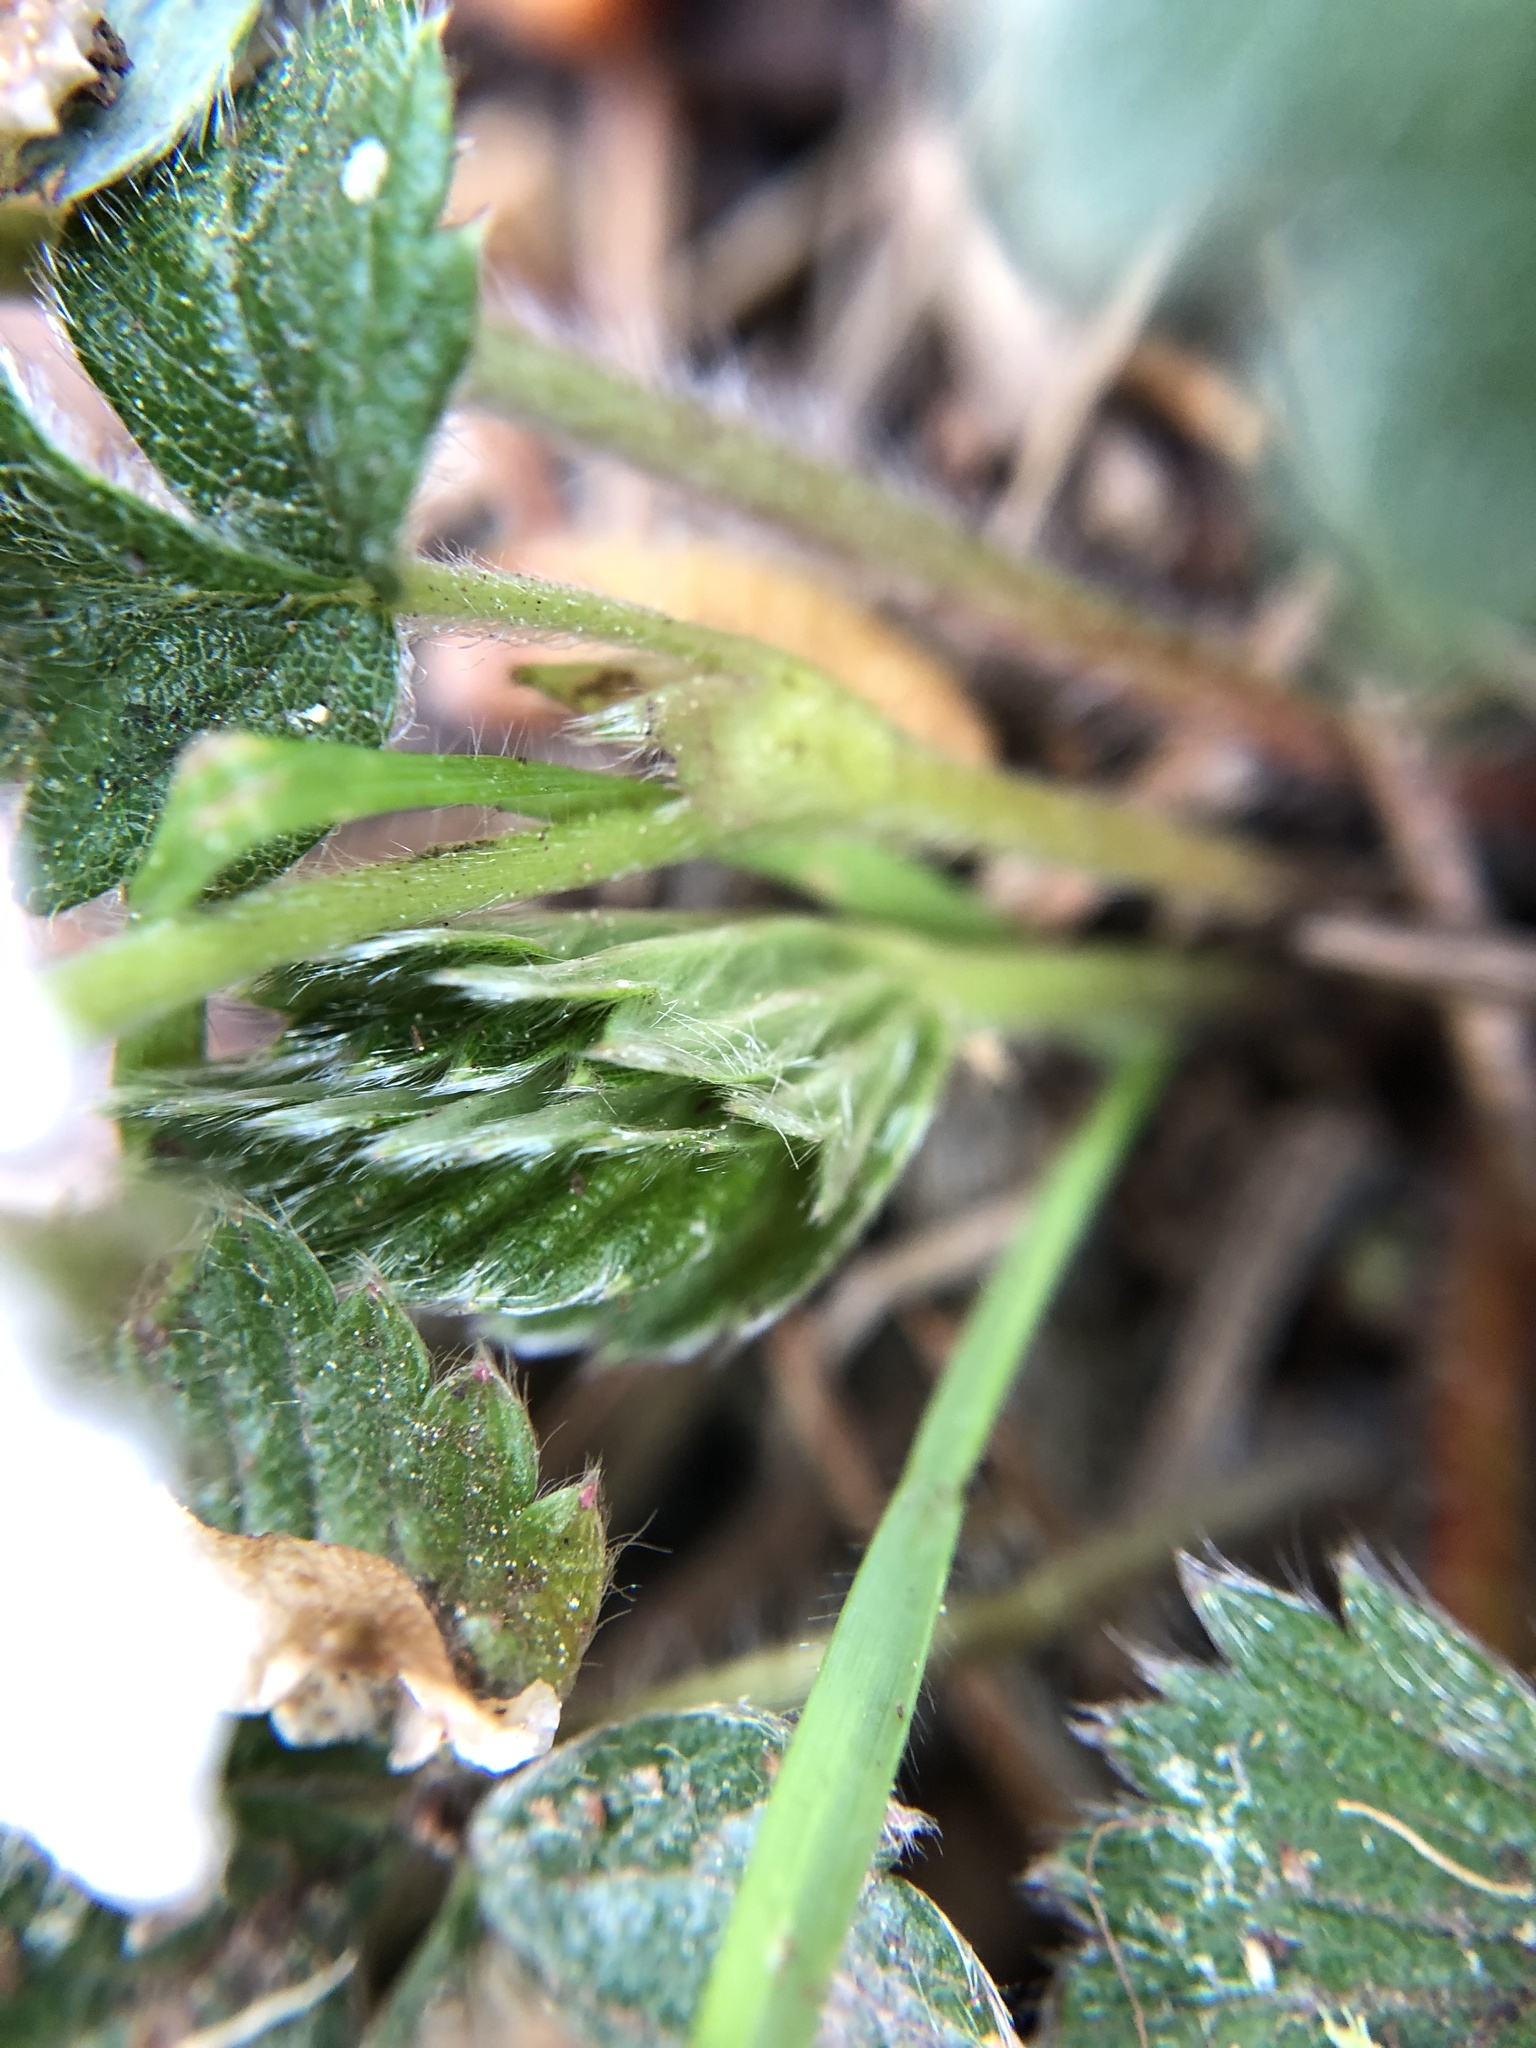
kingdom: Plantae
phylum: Tracheophyta
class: Magnoliopsida
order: Rosales
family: Rosaceae
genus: Fragaria
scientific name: Fragaria vesca
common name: Wild strawberry
